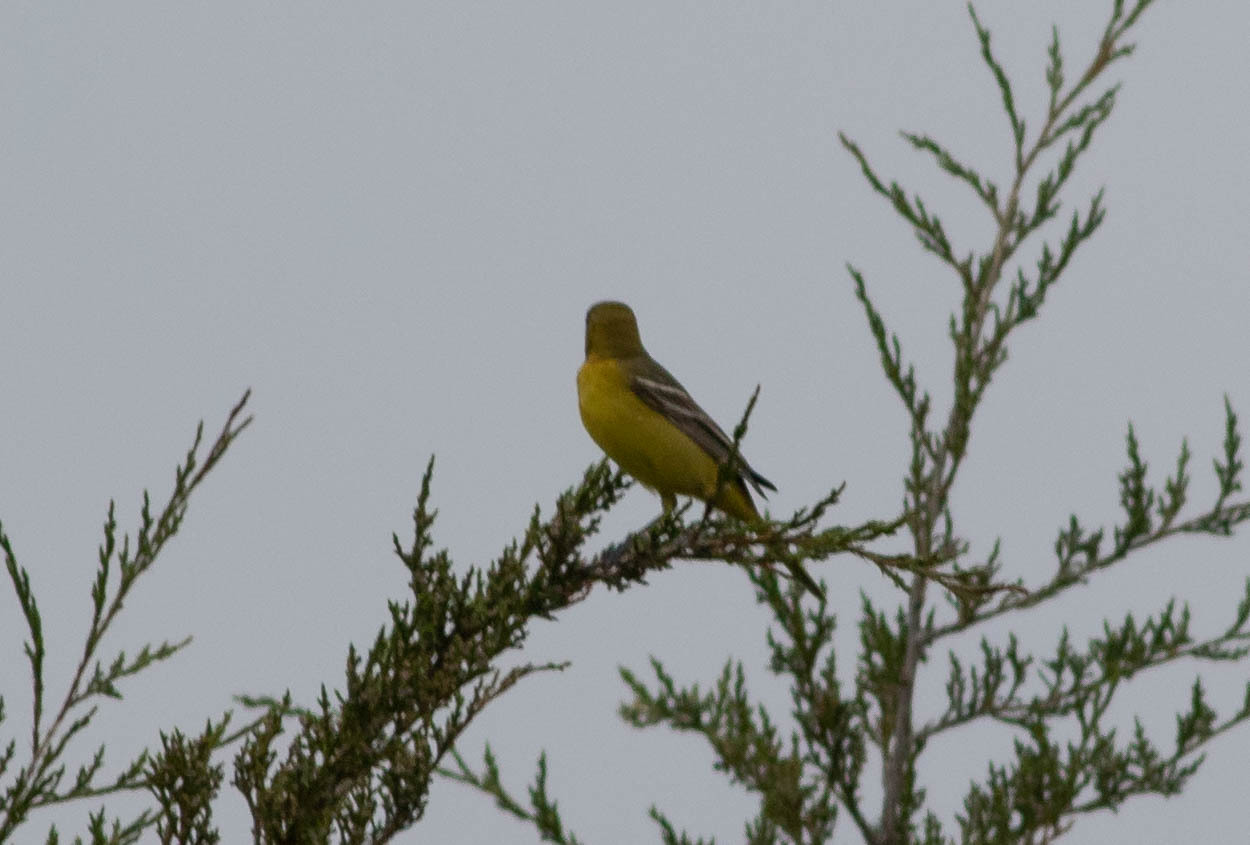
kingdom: Animalia
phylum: Chordata
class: Aves
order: Passeriformes
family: Icteridae
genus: Icterus
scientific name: Icterus spurius
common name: Orchard oriole
